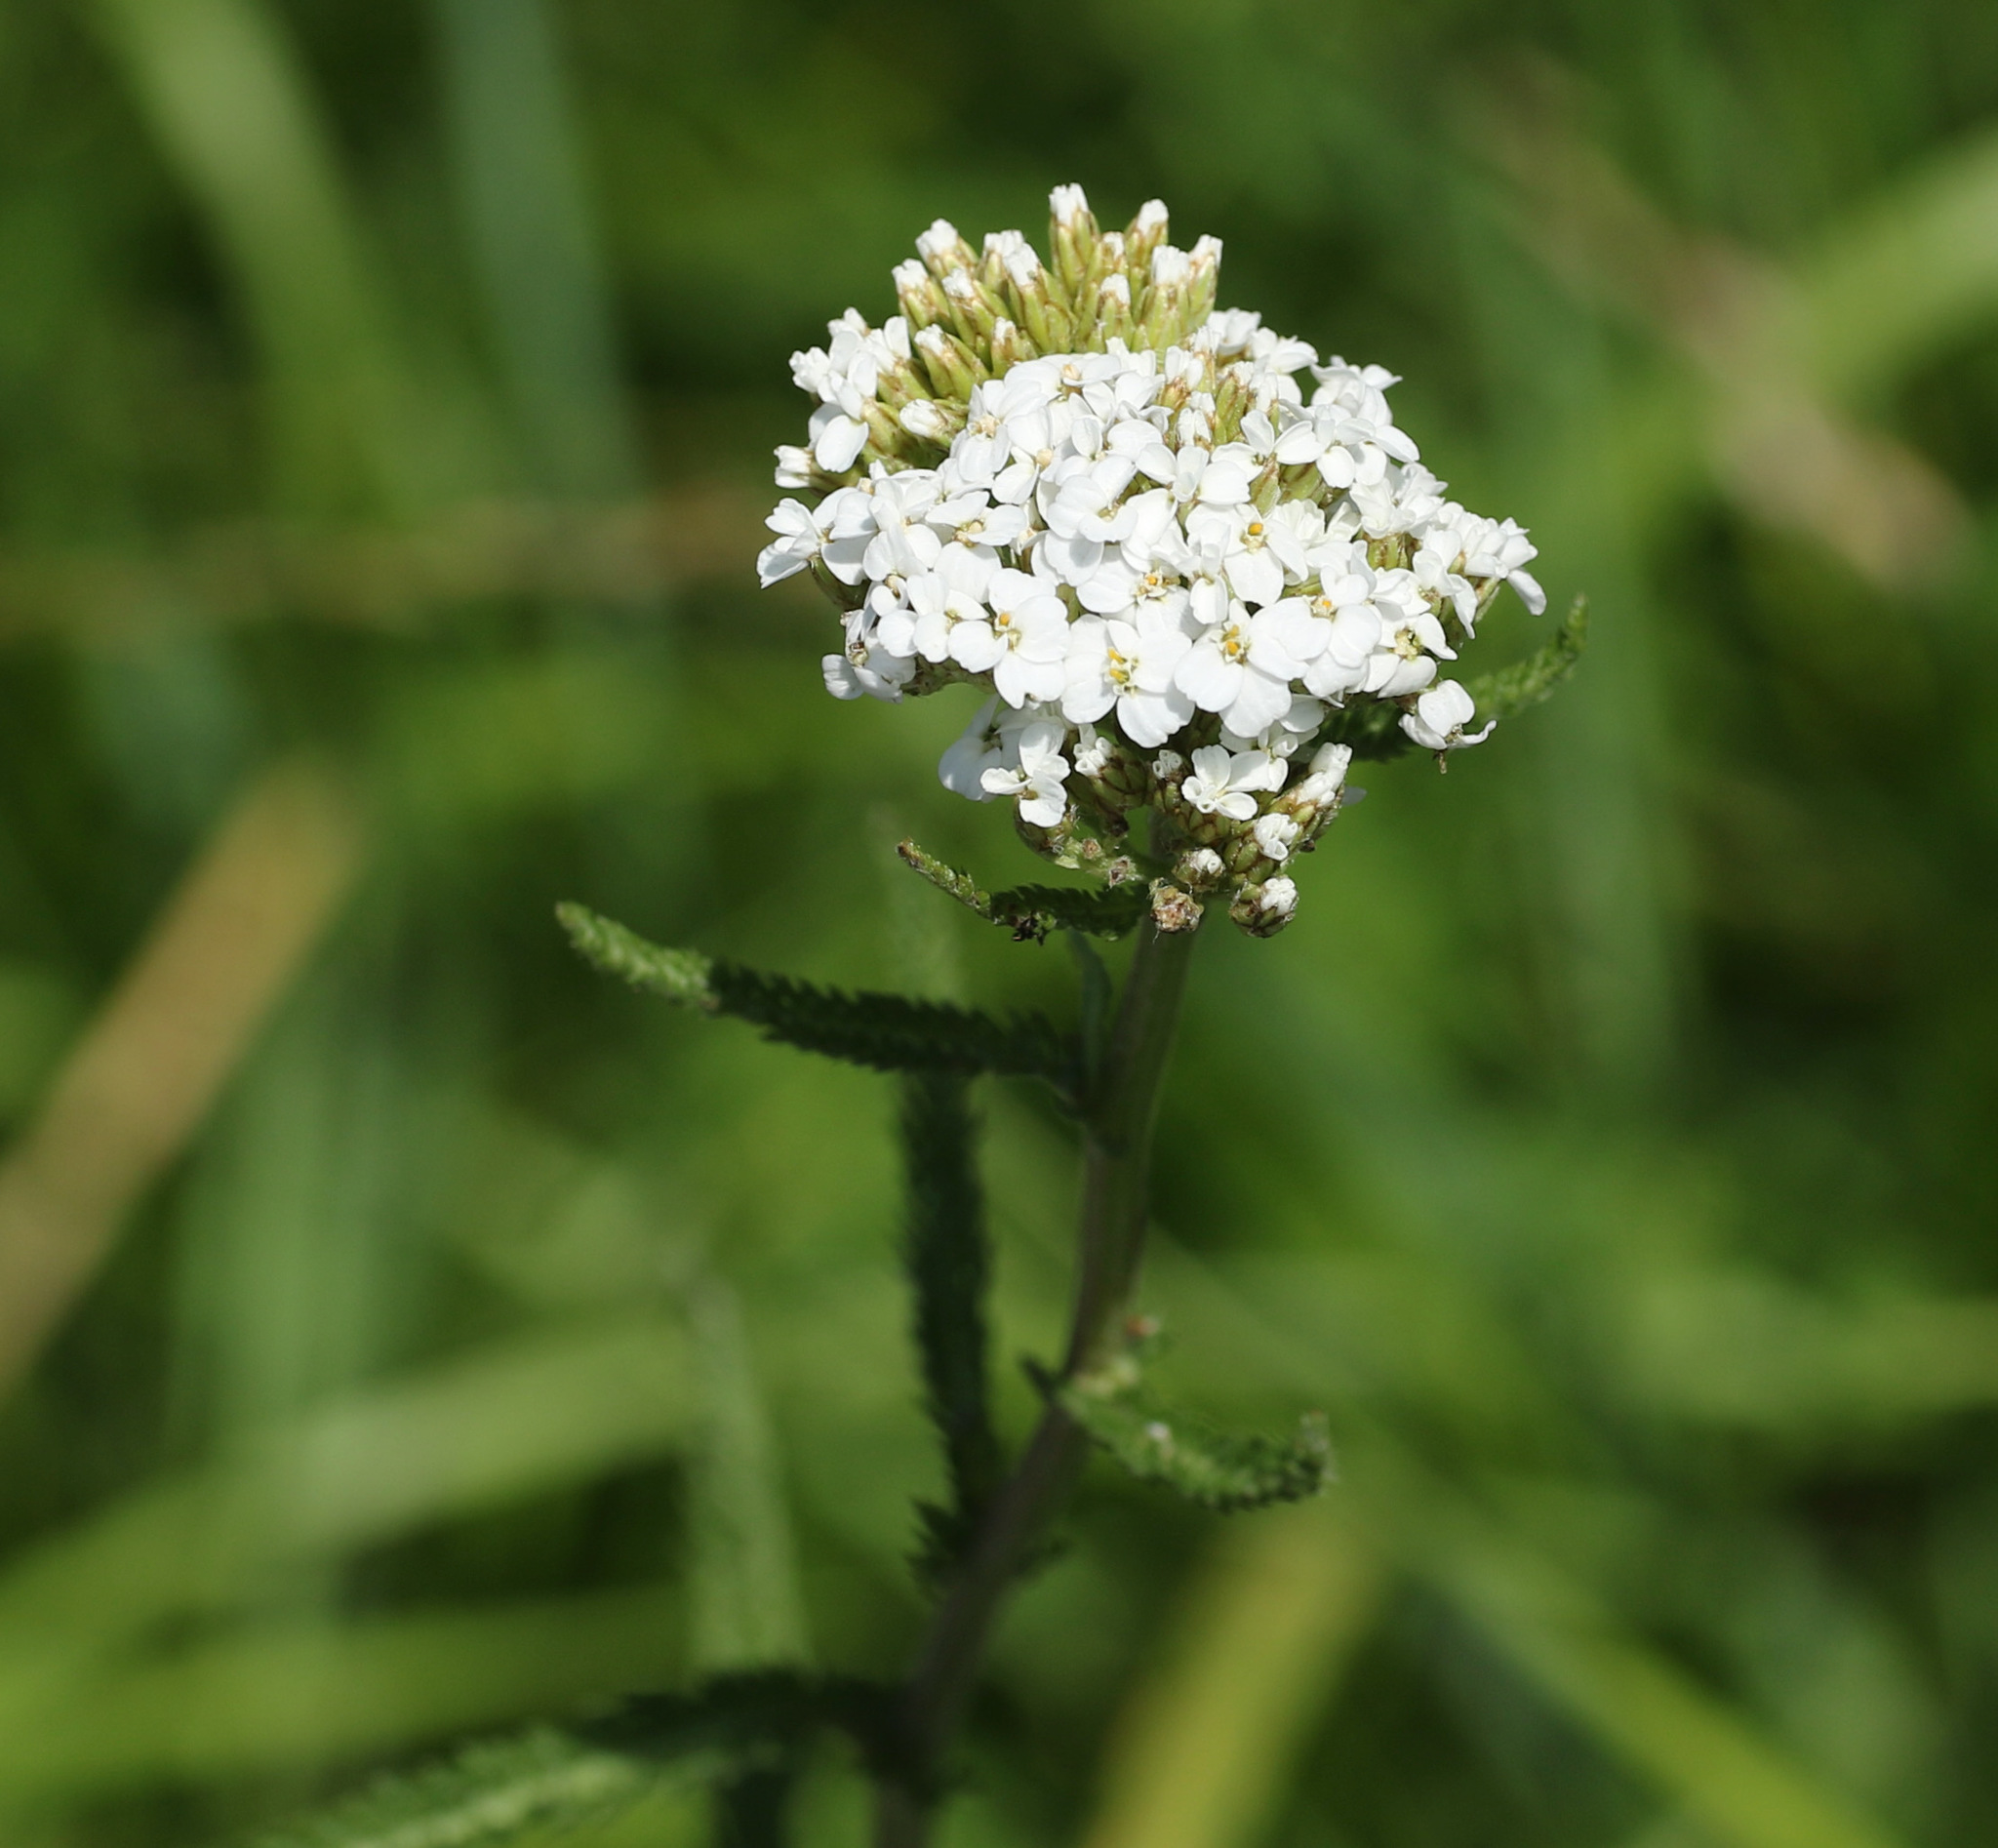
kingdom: Plantae
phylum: Tracheophyta
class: Magnoliopsida
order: Asterales
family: Asteraceae
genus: Achillea
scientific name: Achillea millefolium
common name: Yarrow
